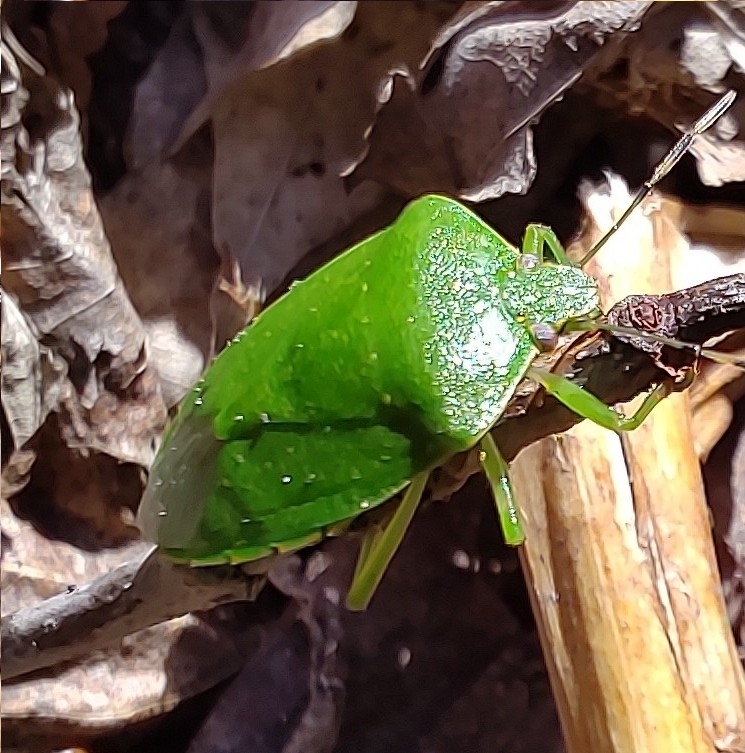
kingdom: Animalia
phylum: Arthropoda
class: Insecta
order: Hemiptera
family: Pentatomidae
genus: Chinavia
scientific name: Chinavia hilaris
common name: Green stink bug
